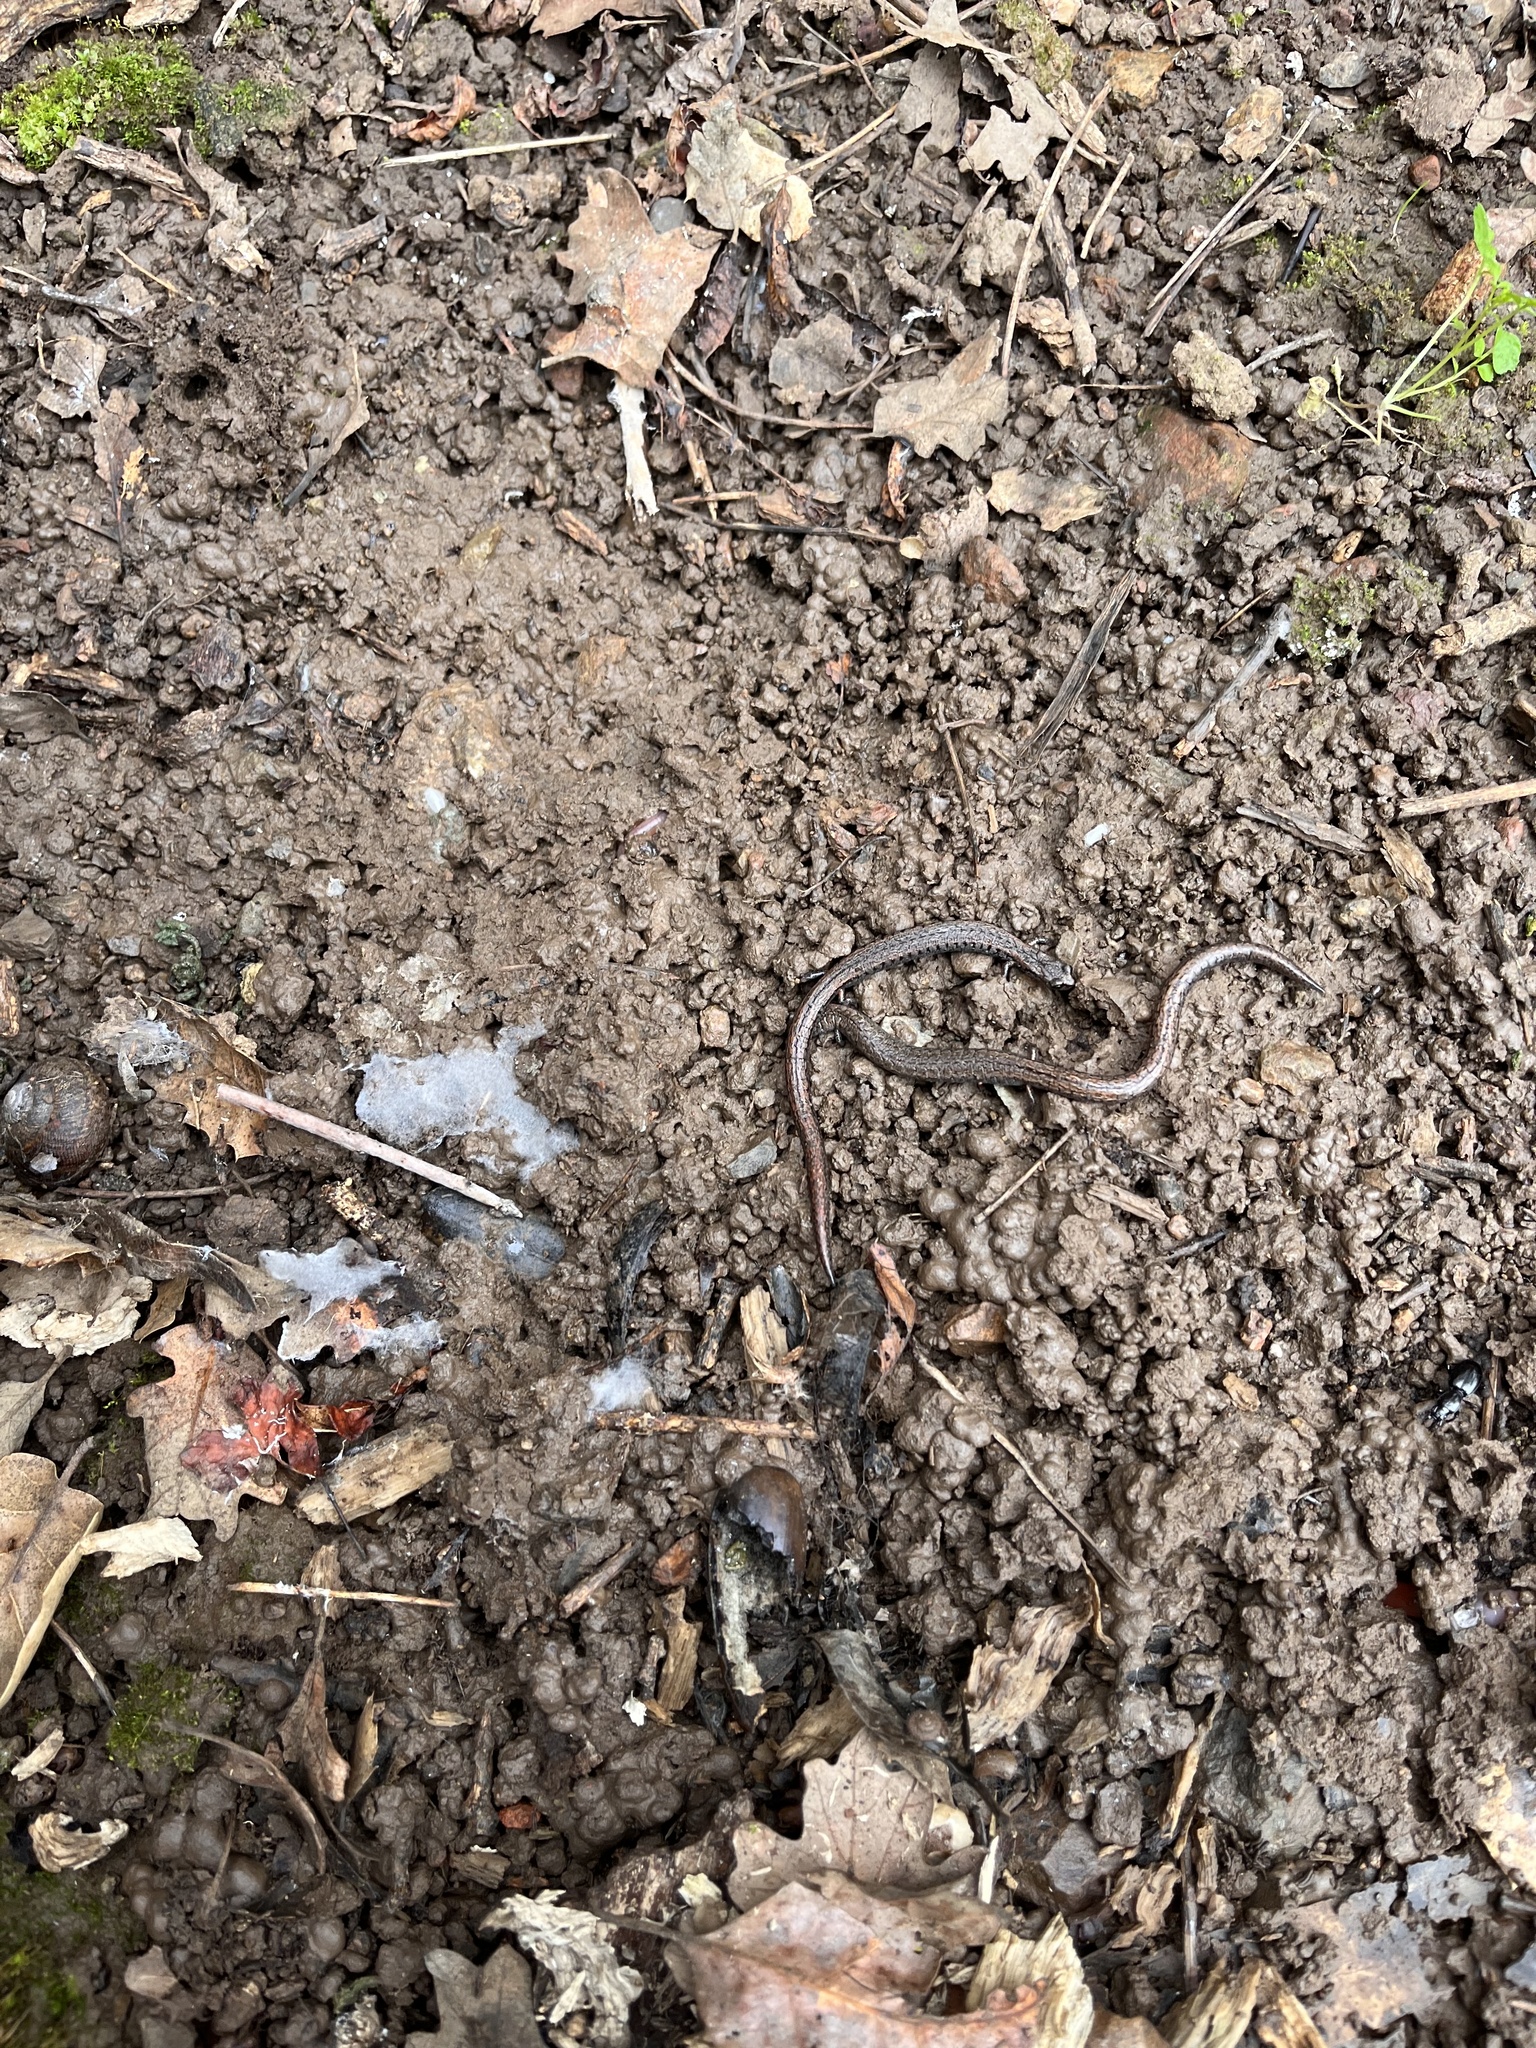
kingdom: Animalia
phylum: Chordata
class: Amphibia
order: Caudata
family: Plethodontidae
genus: Batrachoseps
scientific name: Batrachoseps attenuatus
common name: California slender salamander
